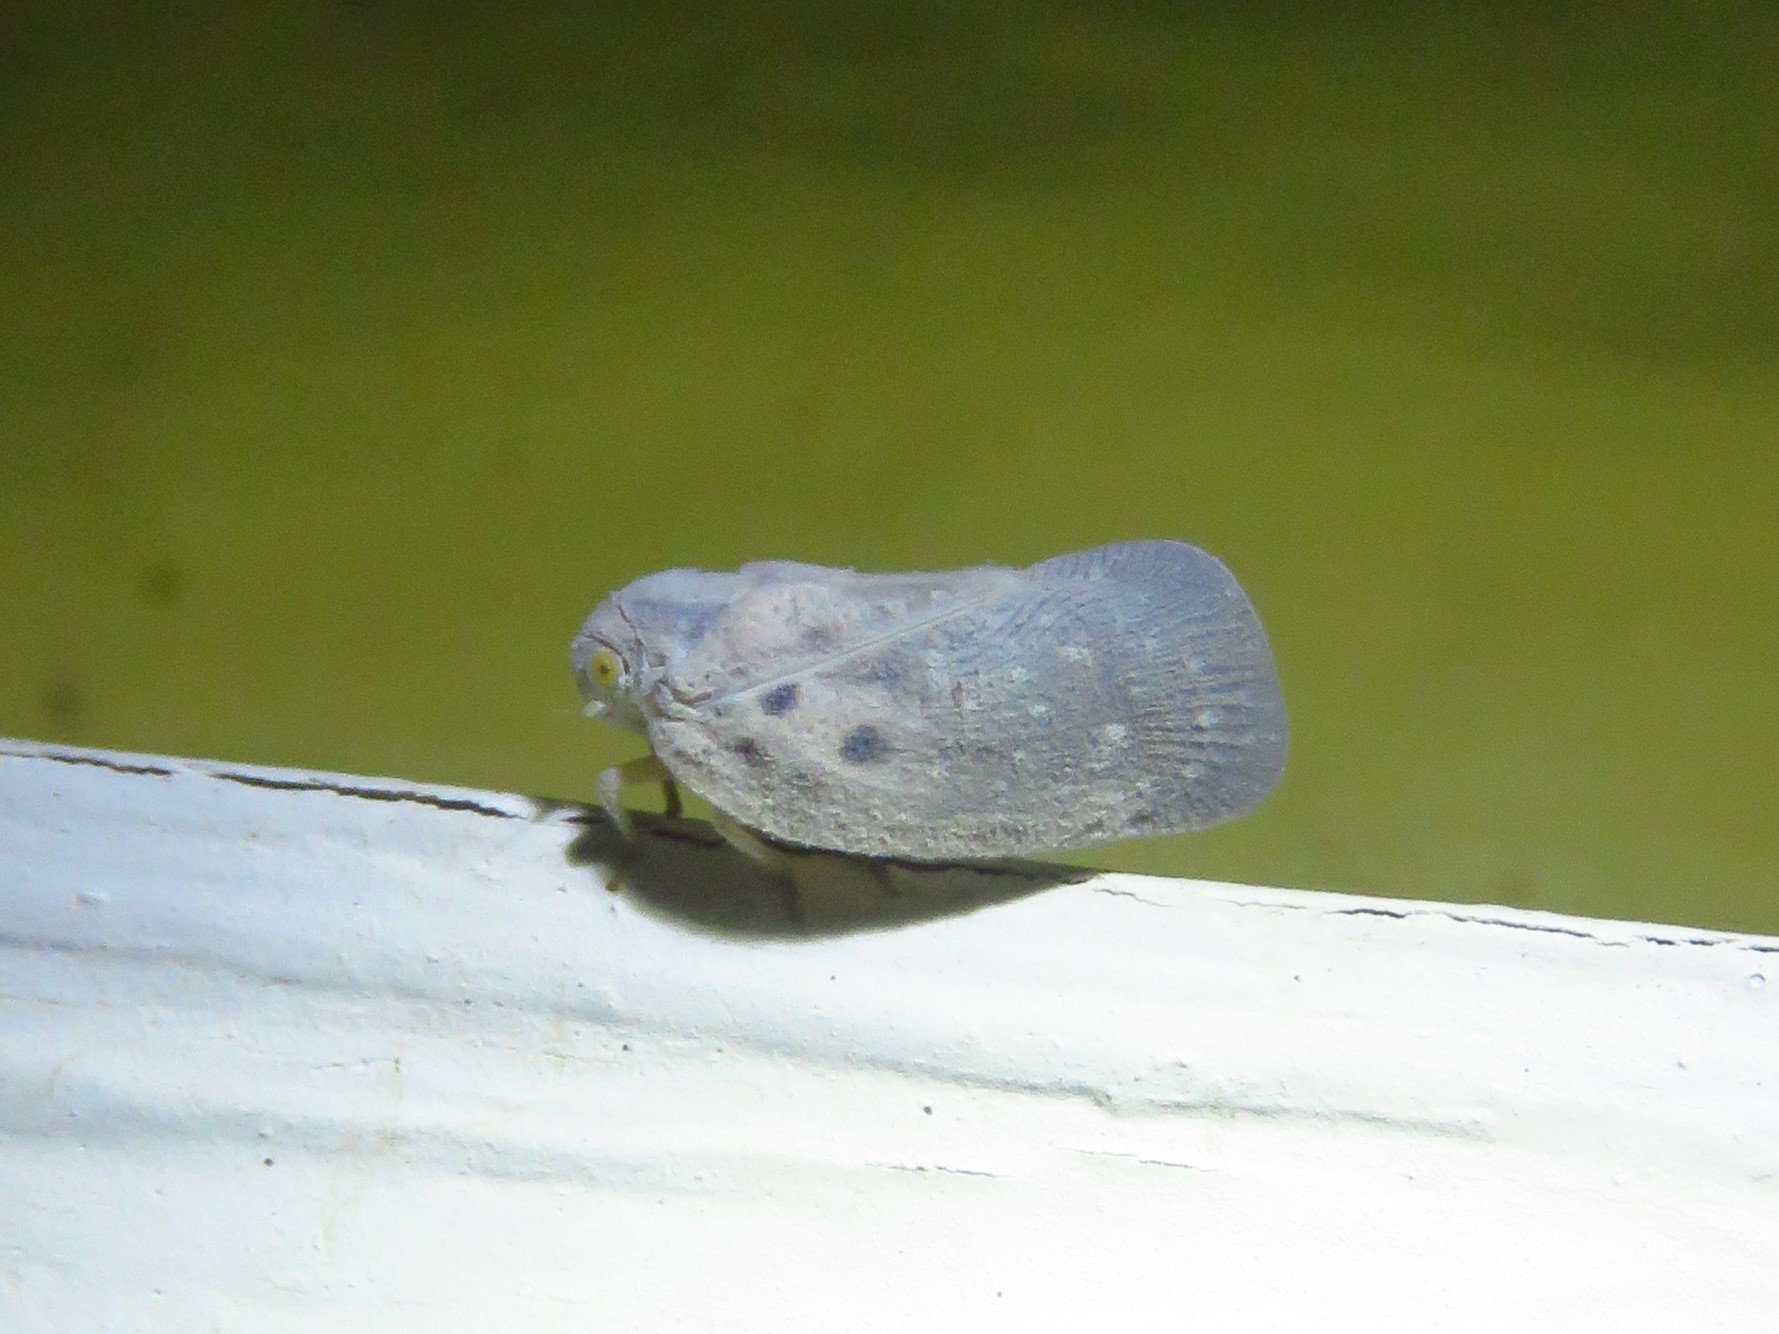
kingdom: Animalia
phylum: Arthropoda
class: Insecta
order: Hemiptera
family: Flatidae
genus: Metcalfa
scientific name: Metcalfa pruinosa
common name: Citrus flatid planthopper
